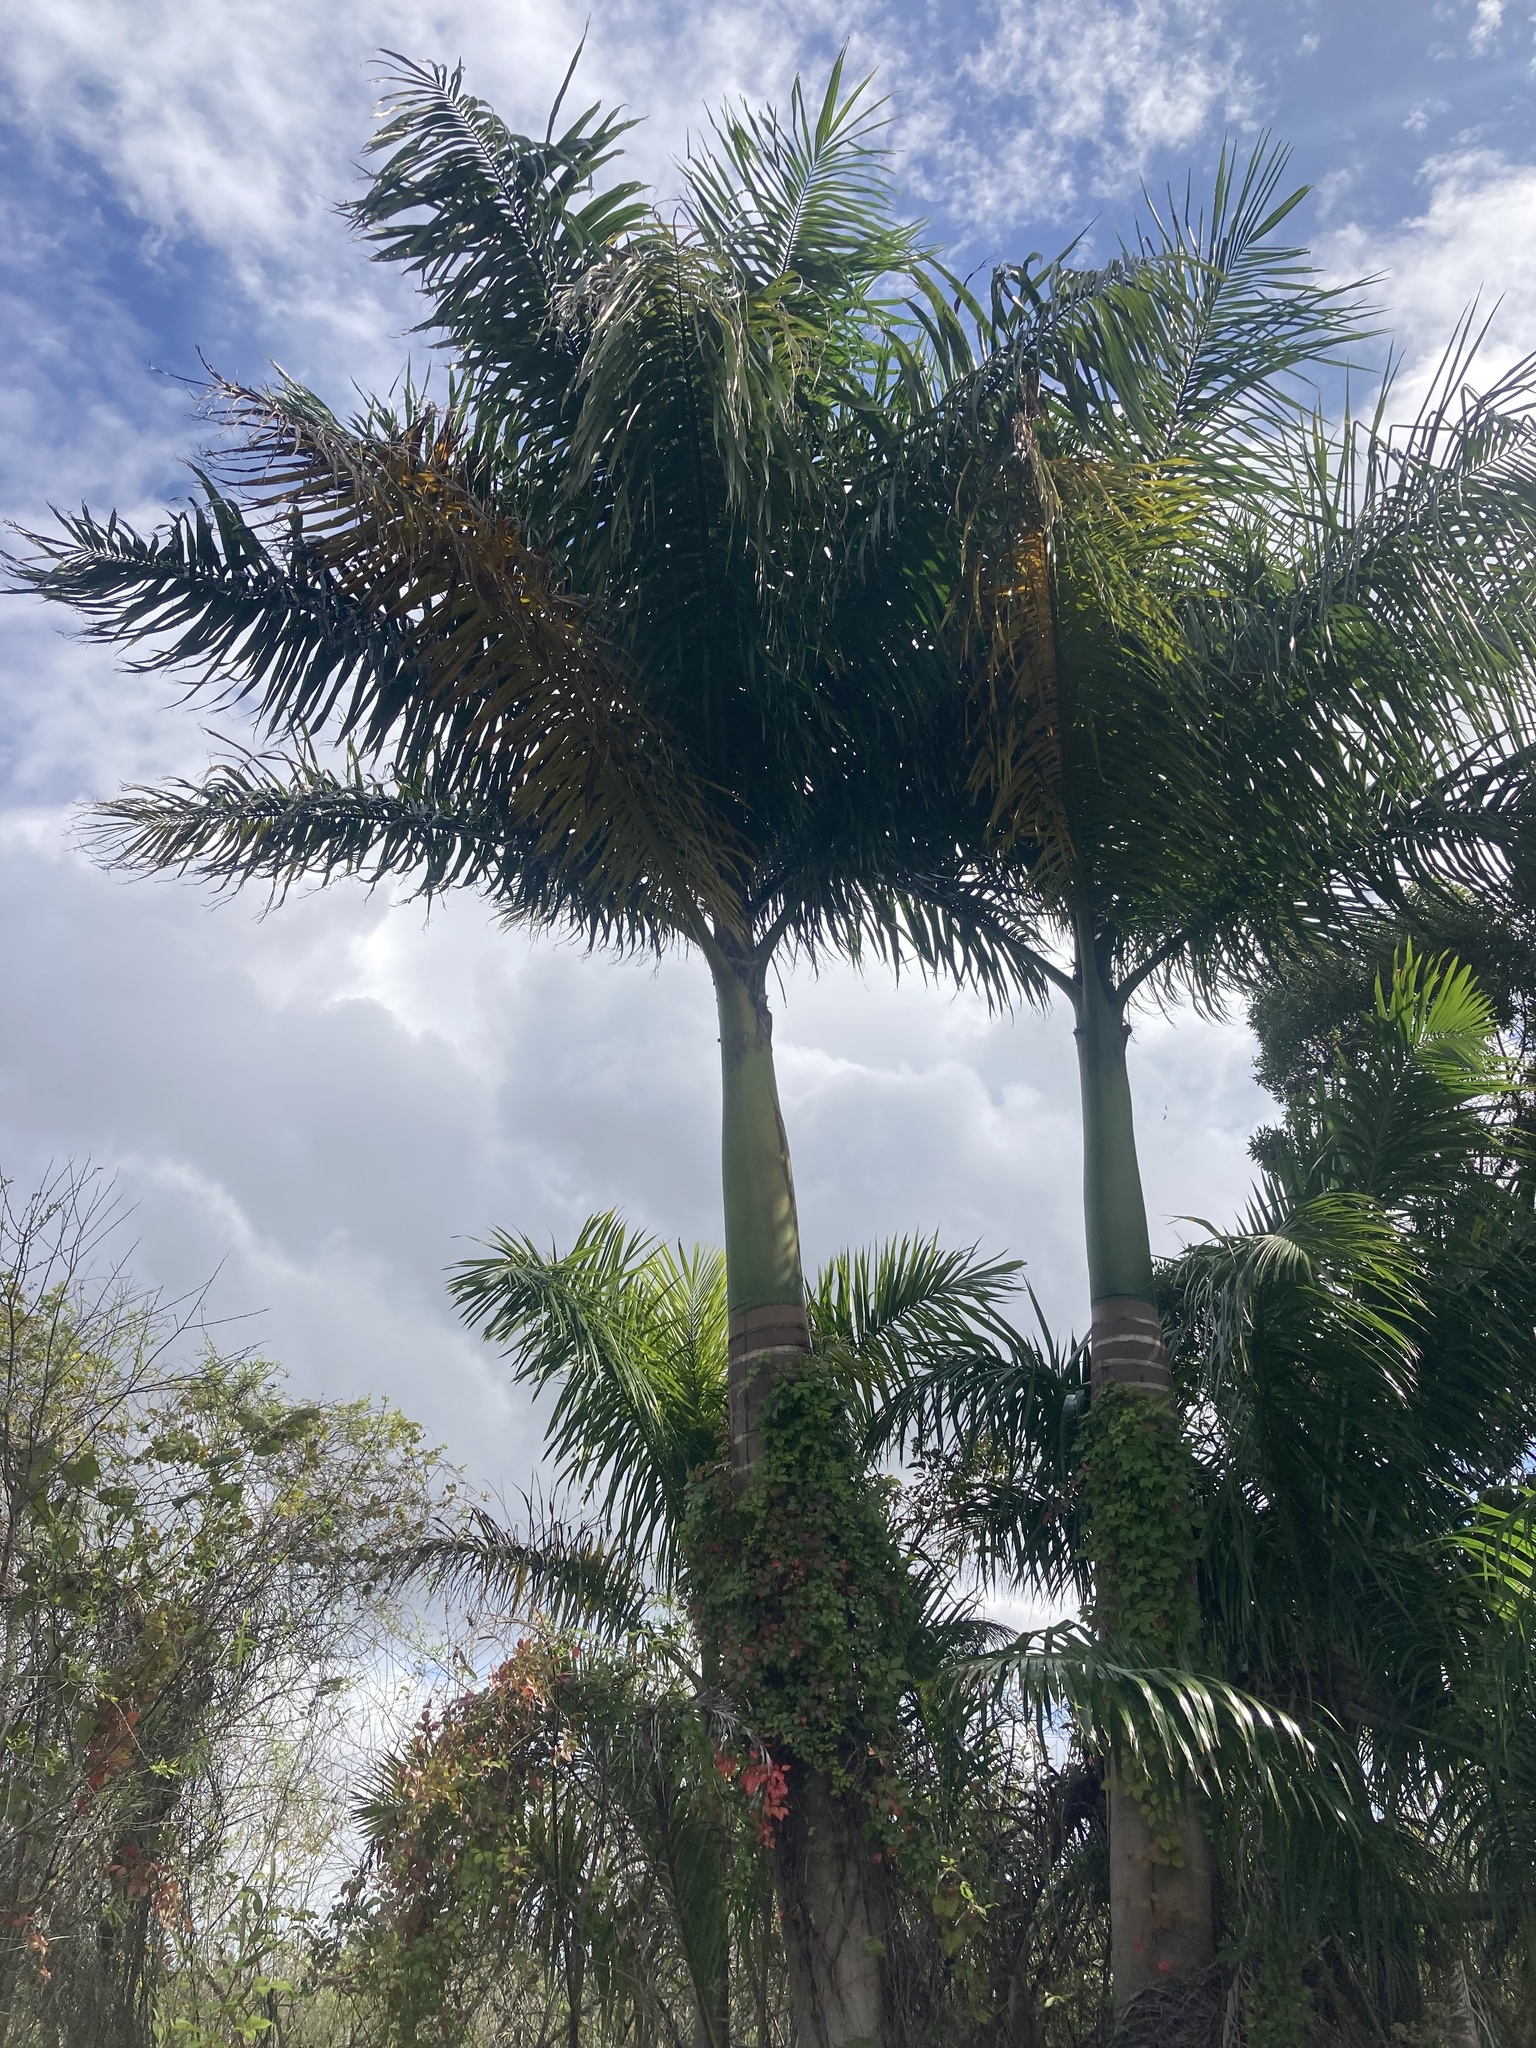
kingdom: Plantae
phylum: Tracheophyta
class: Liliopsida
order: Arecales
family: Arecaceae
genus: Roystonea
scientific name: Roystonea regia
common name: Florida royal palm
